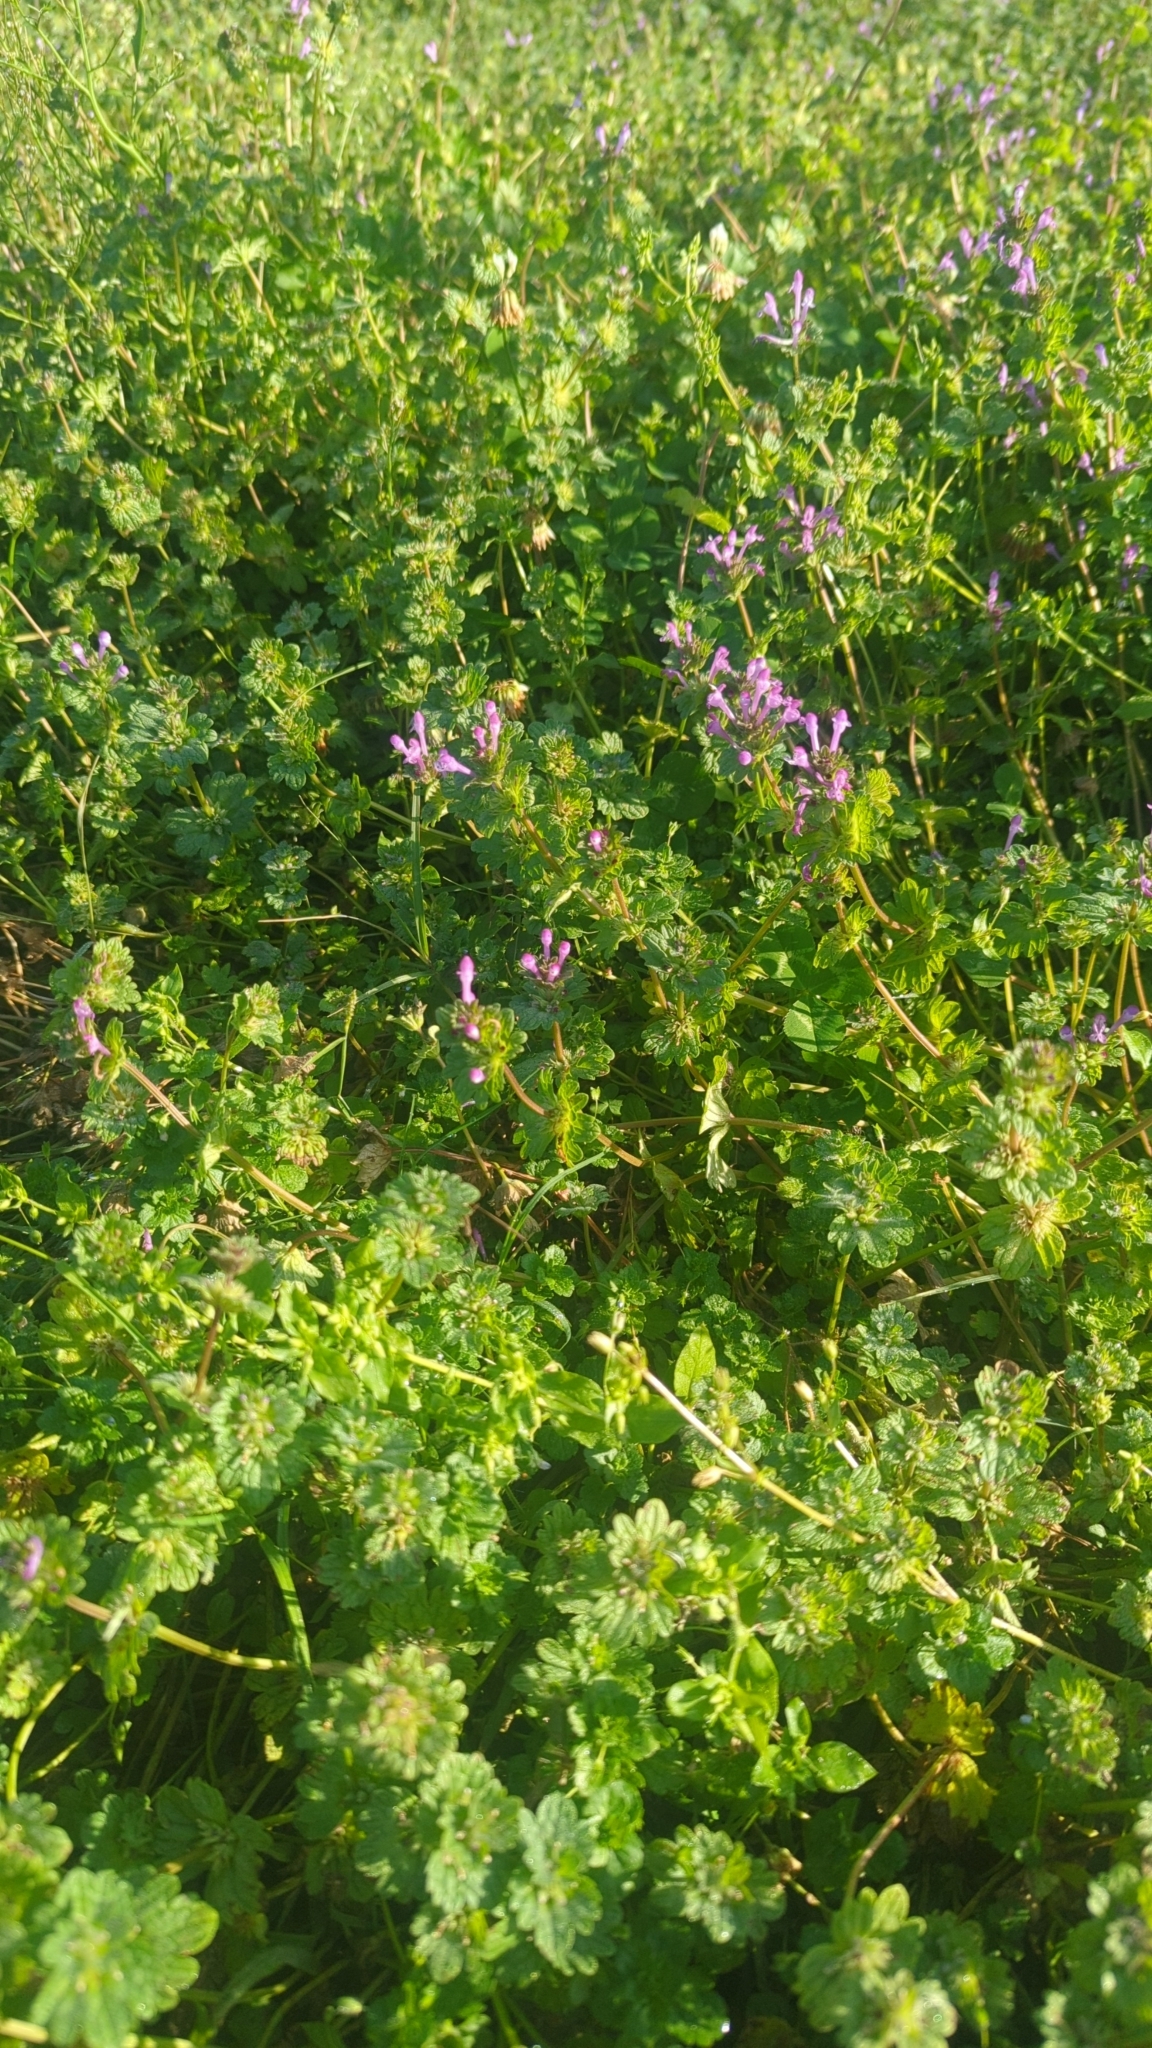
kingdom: Plantae
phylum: Tracheophyta
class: Magnoliopsida
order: Lamiales
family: Lamiaceae
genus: Lamium
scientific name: Lamium amplexicaule
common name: Henbit dead-nettle
